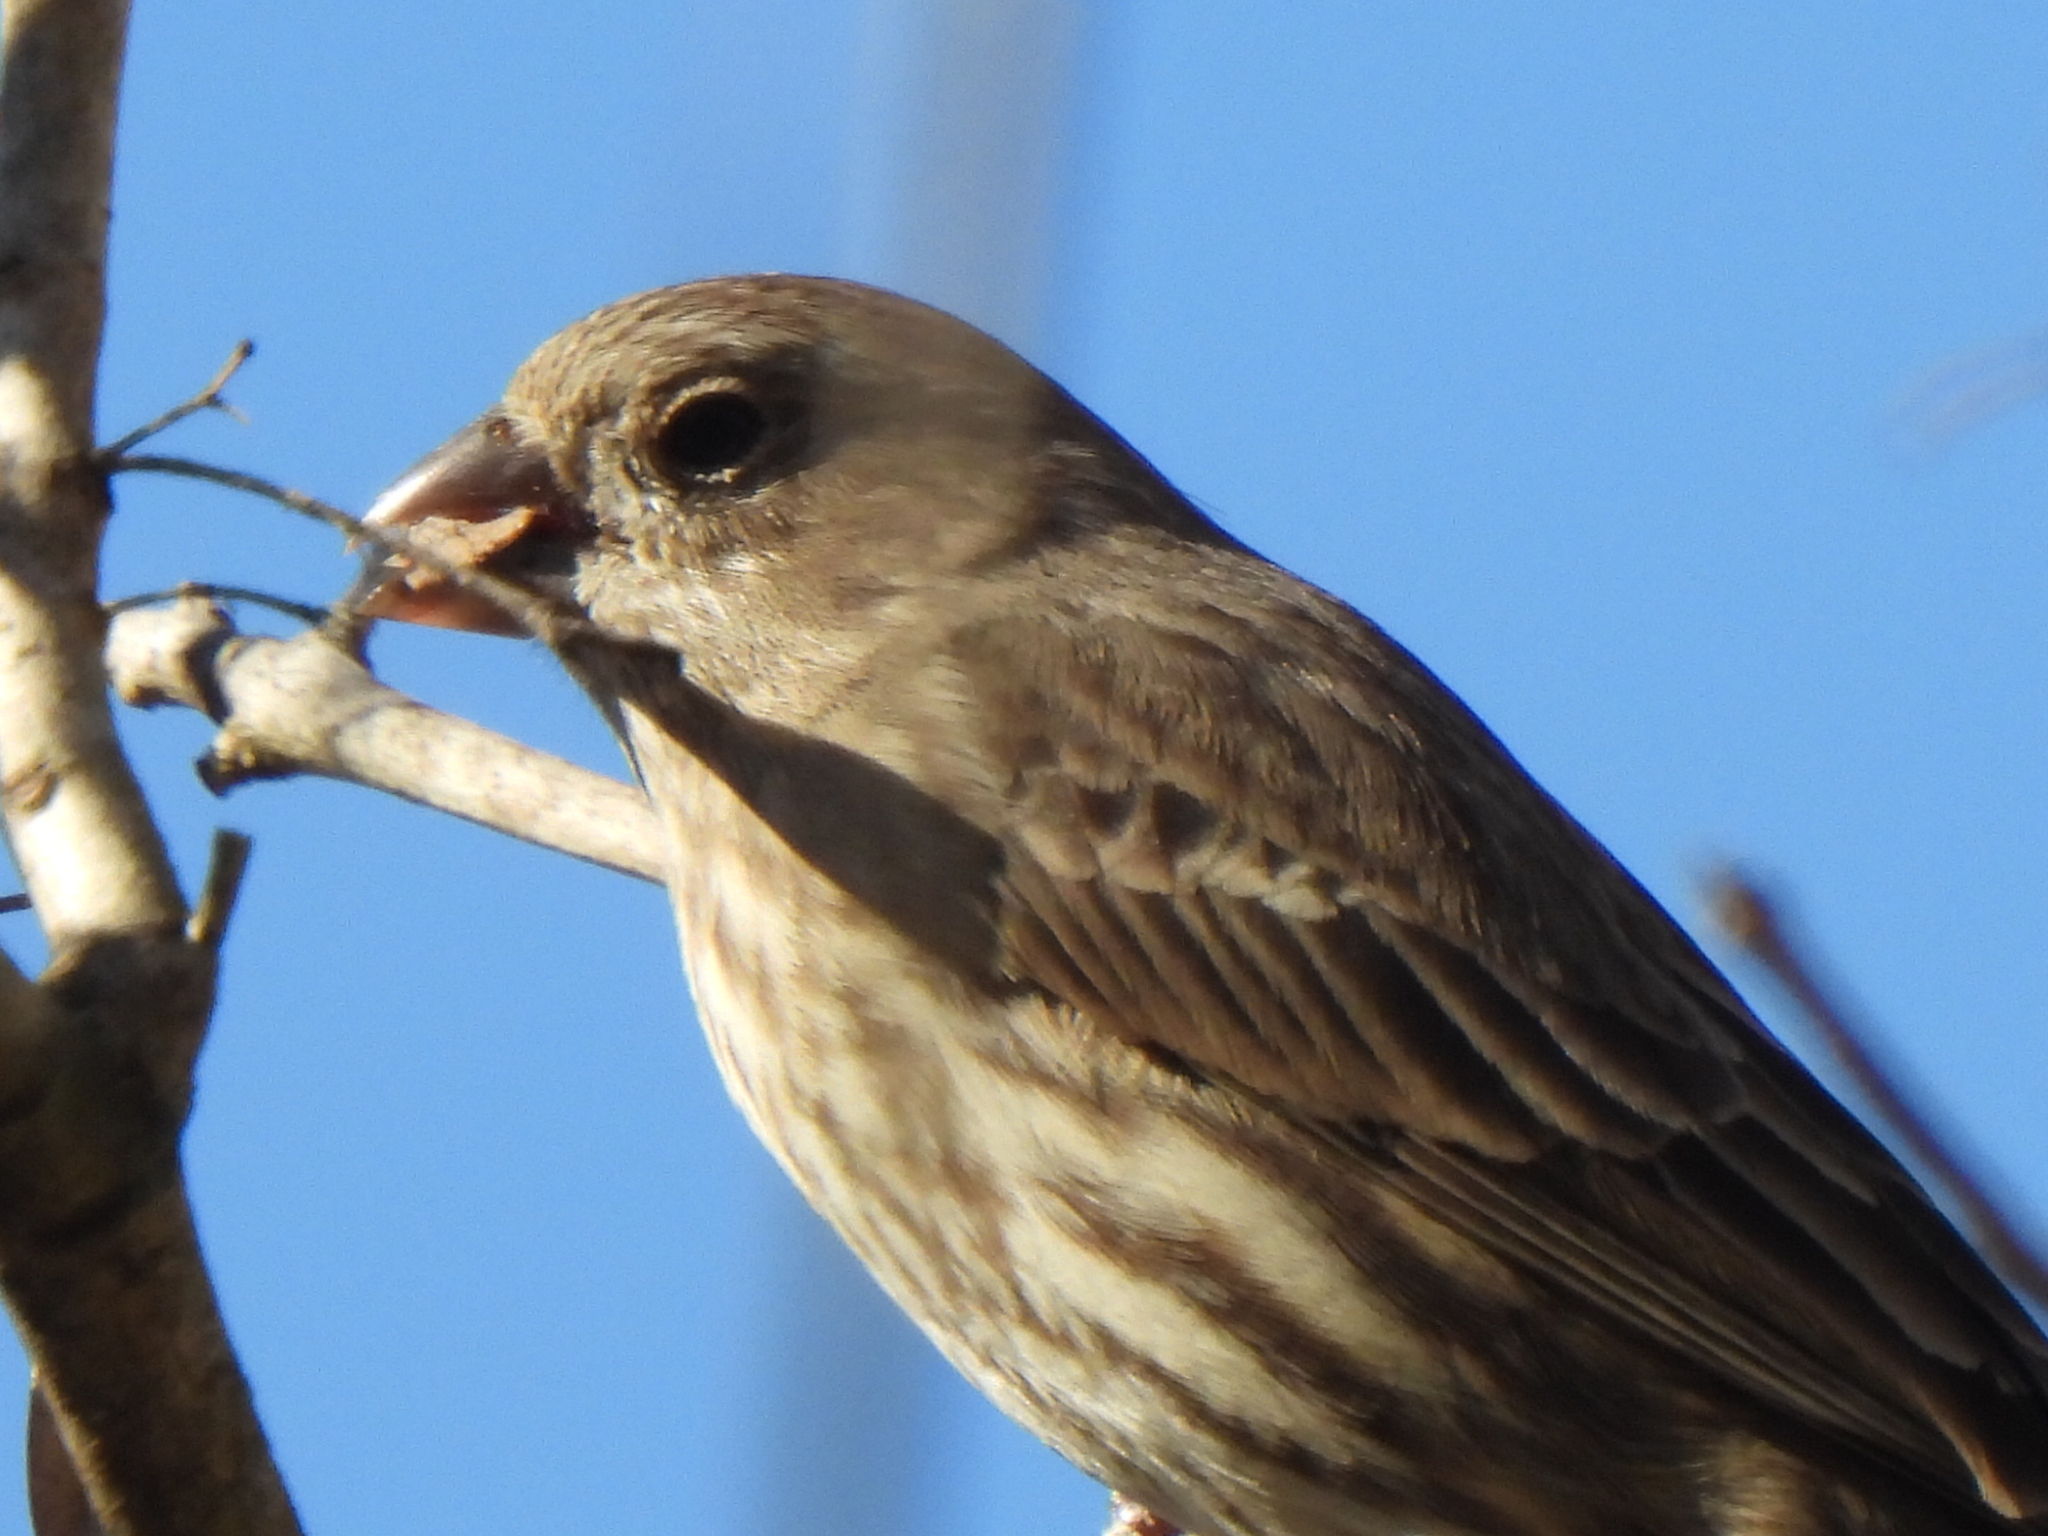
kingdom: Animalia
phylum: Chordata
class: Aves
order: Passeriformes
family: Fringillidae
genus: Haemorhous
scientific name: Haemorhous mexicanus
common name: House finch
